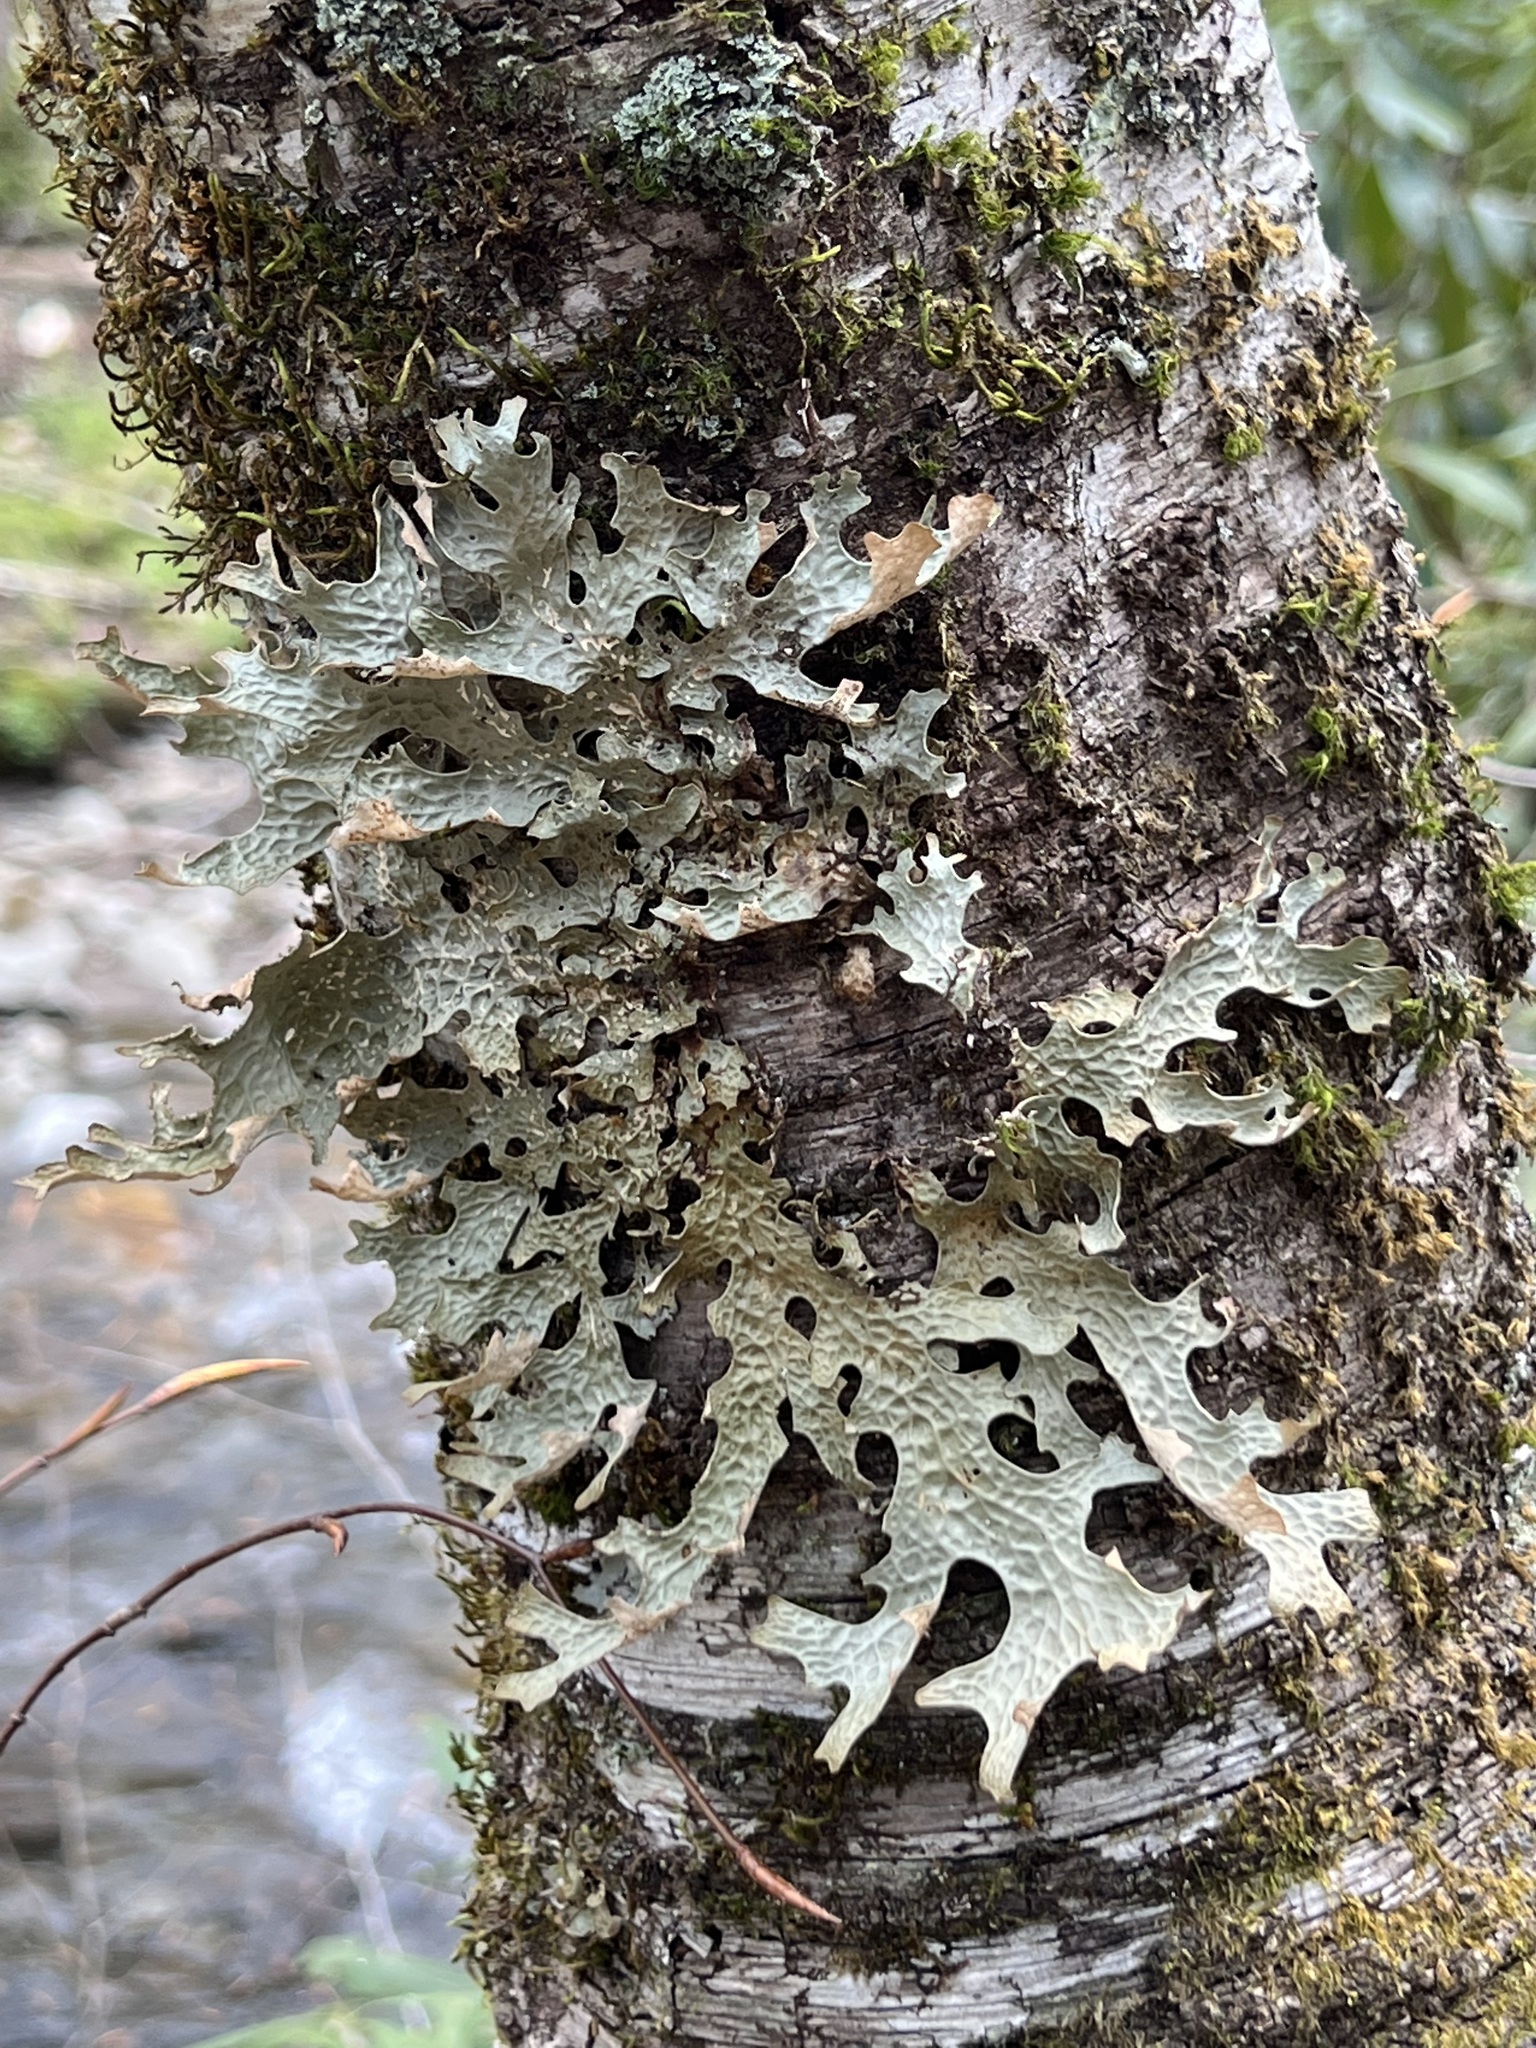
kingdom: Fungi
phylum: Ascomycota
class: Lecanoromycetes
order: Peltigerales
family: Lobariaceae
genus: Lobaria
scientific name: Lobaria pulmonaria
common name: Lungwort
